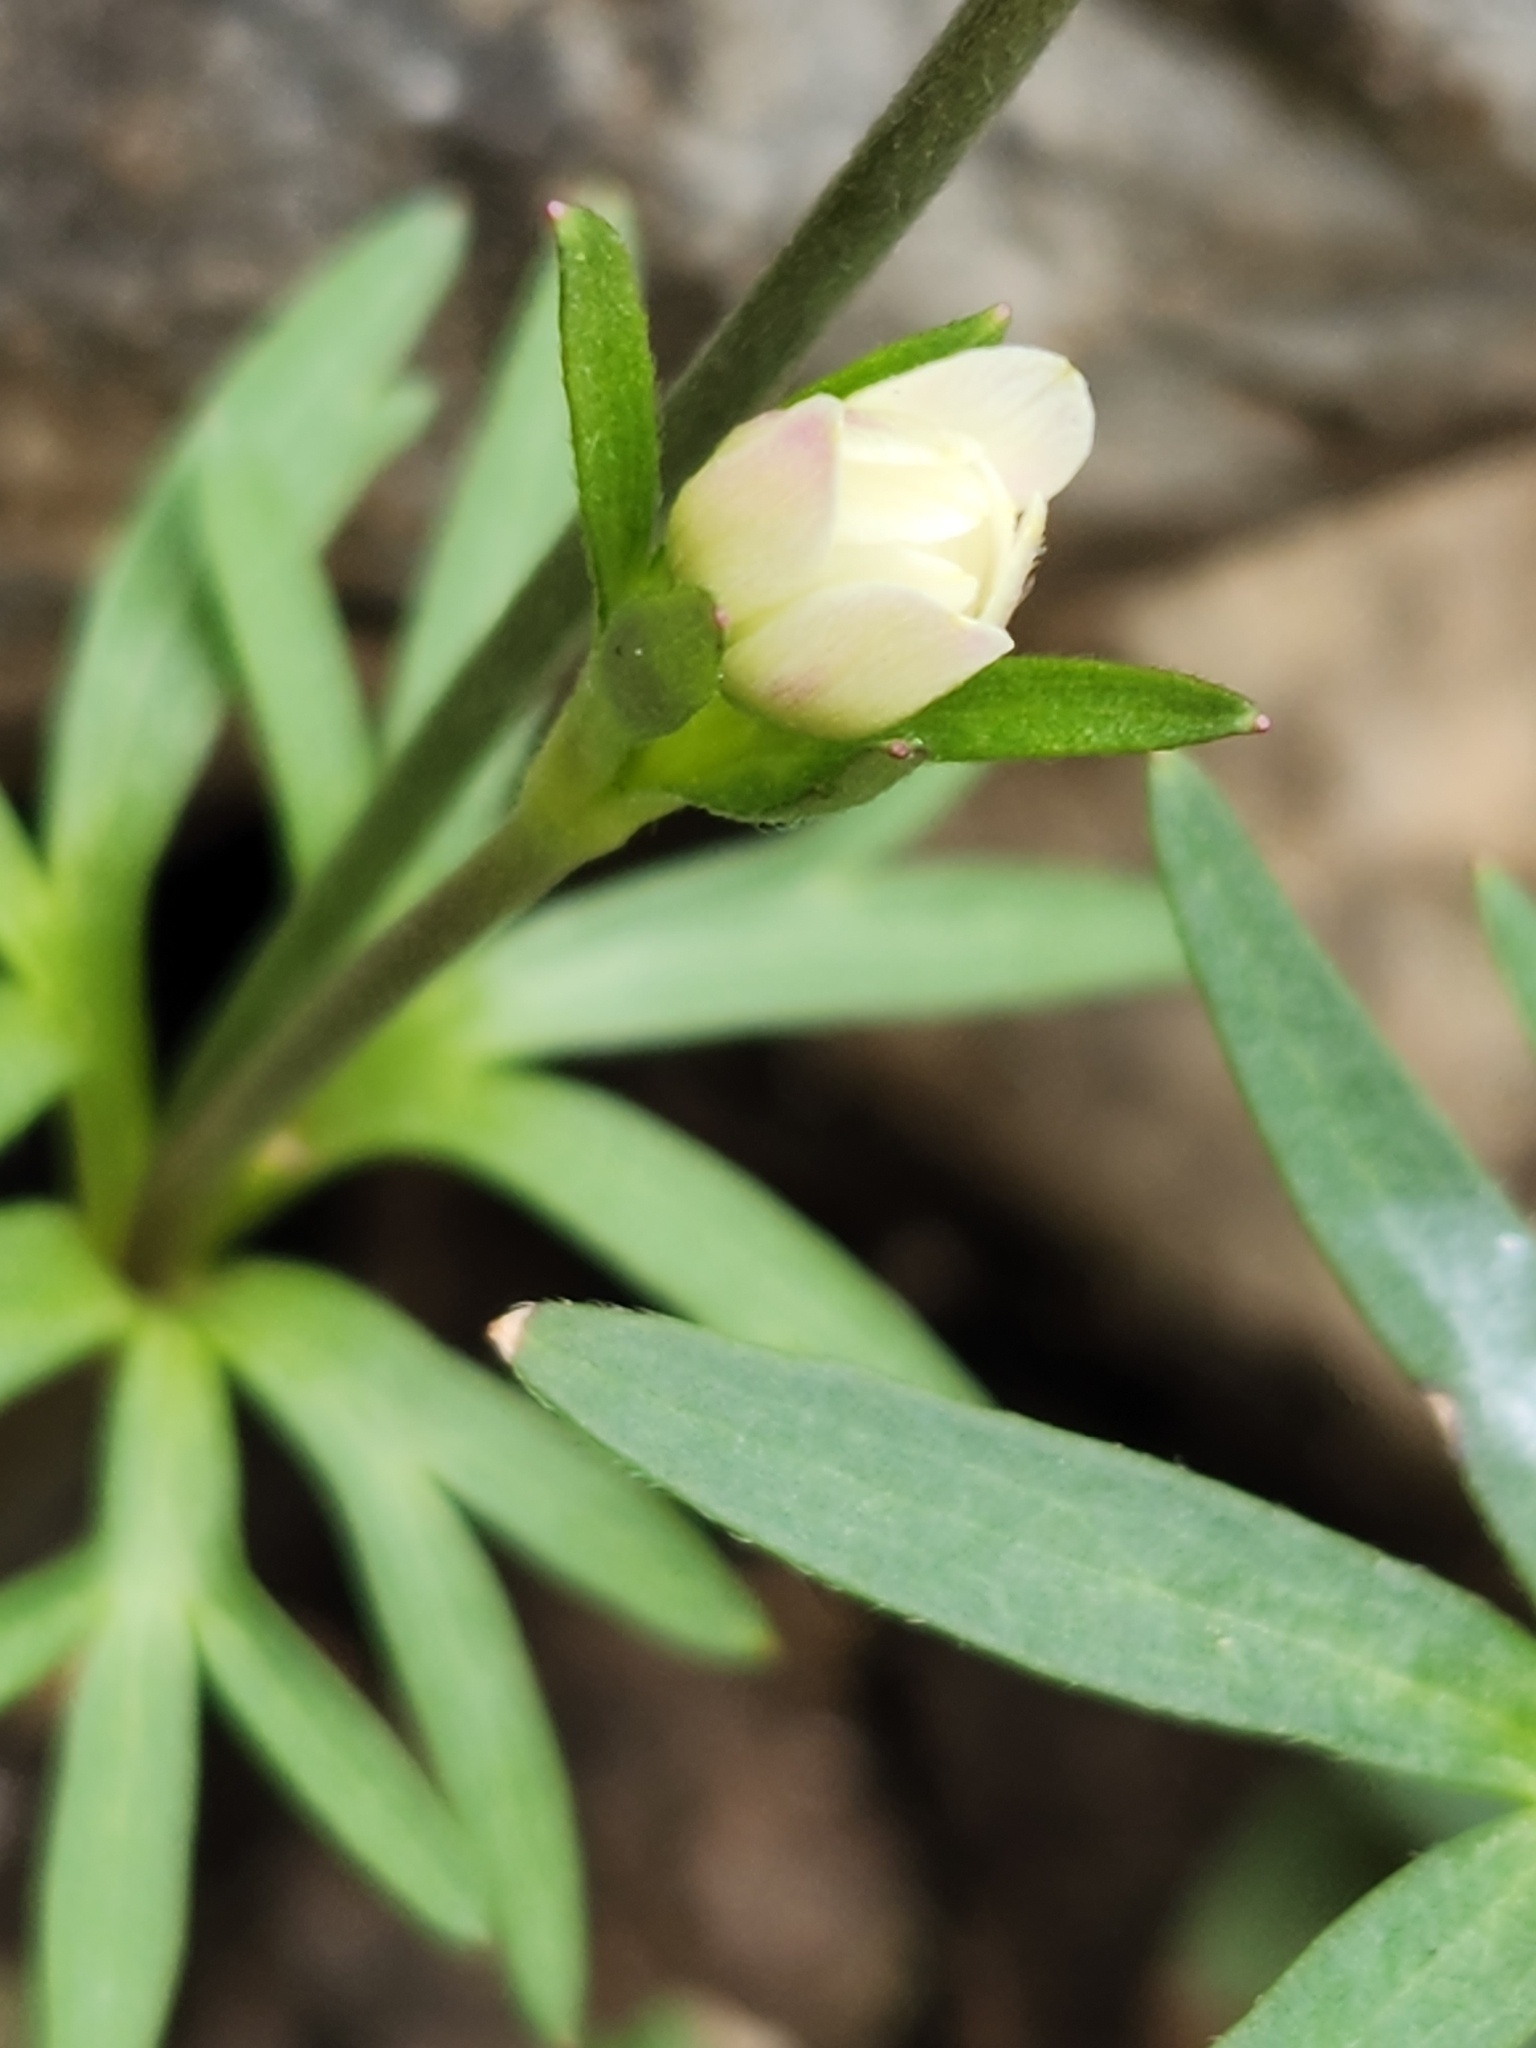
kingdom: Plantae
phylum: Tracheophyta
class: Magnoliopsida
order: Ranunculales
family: Ranunculaceae
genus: Anemone
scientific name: Anemone edwardsiana
